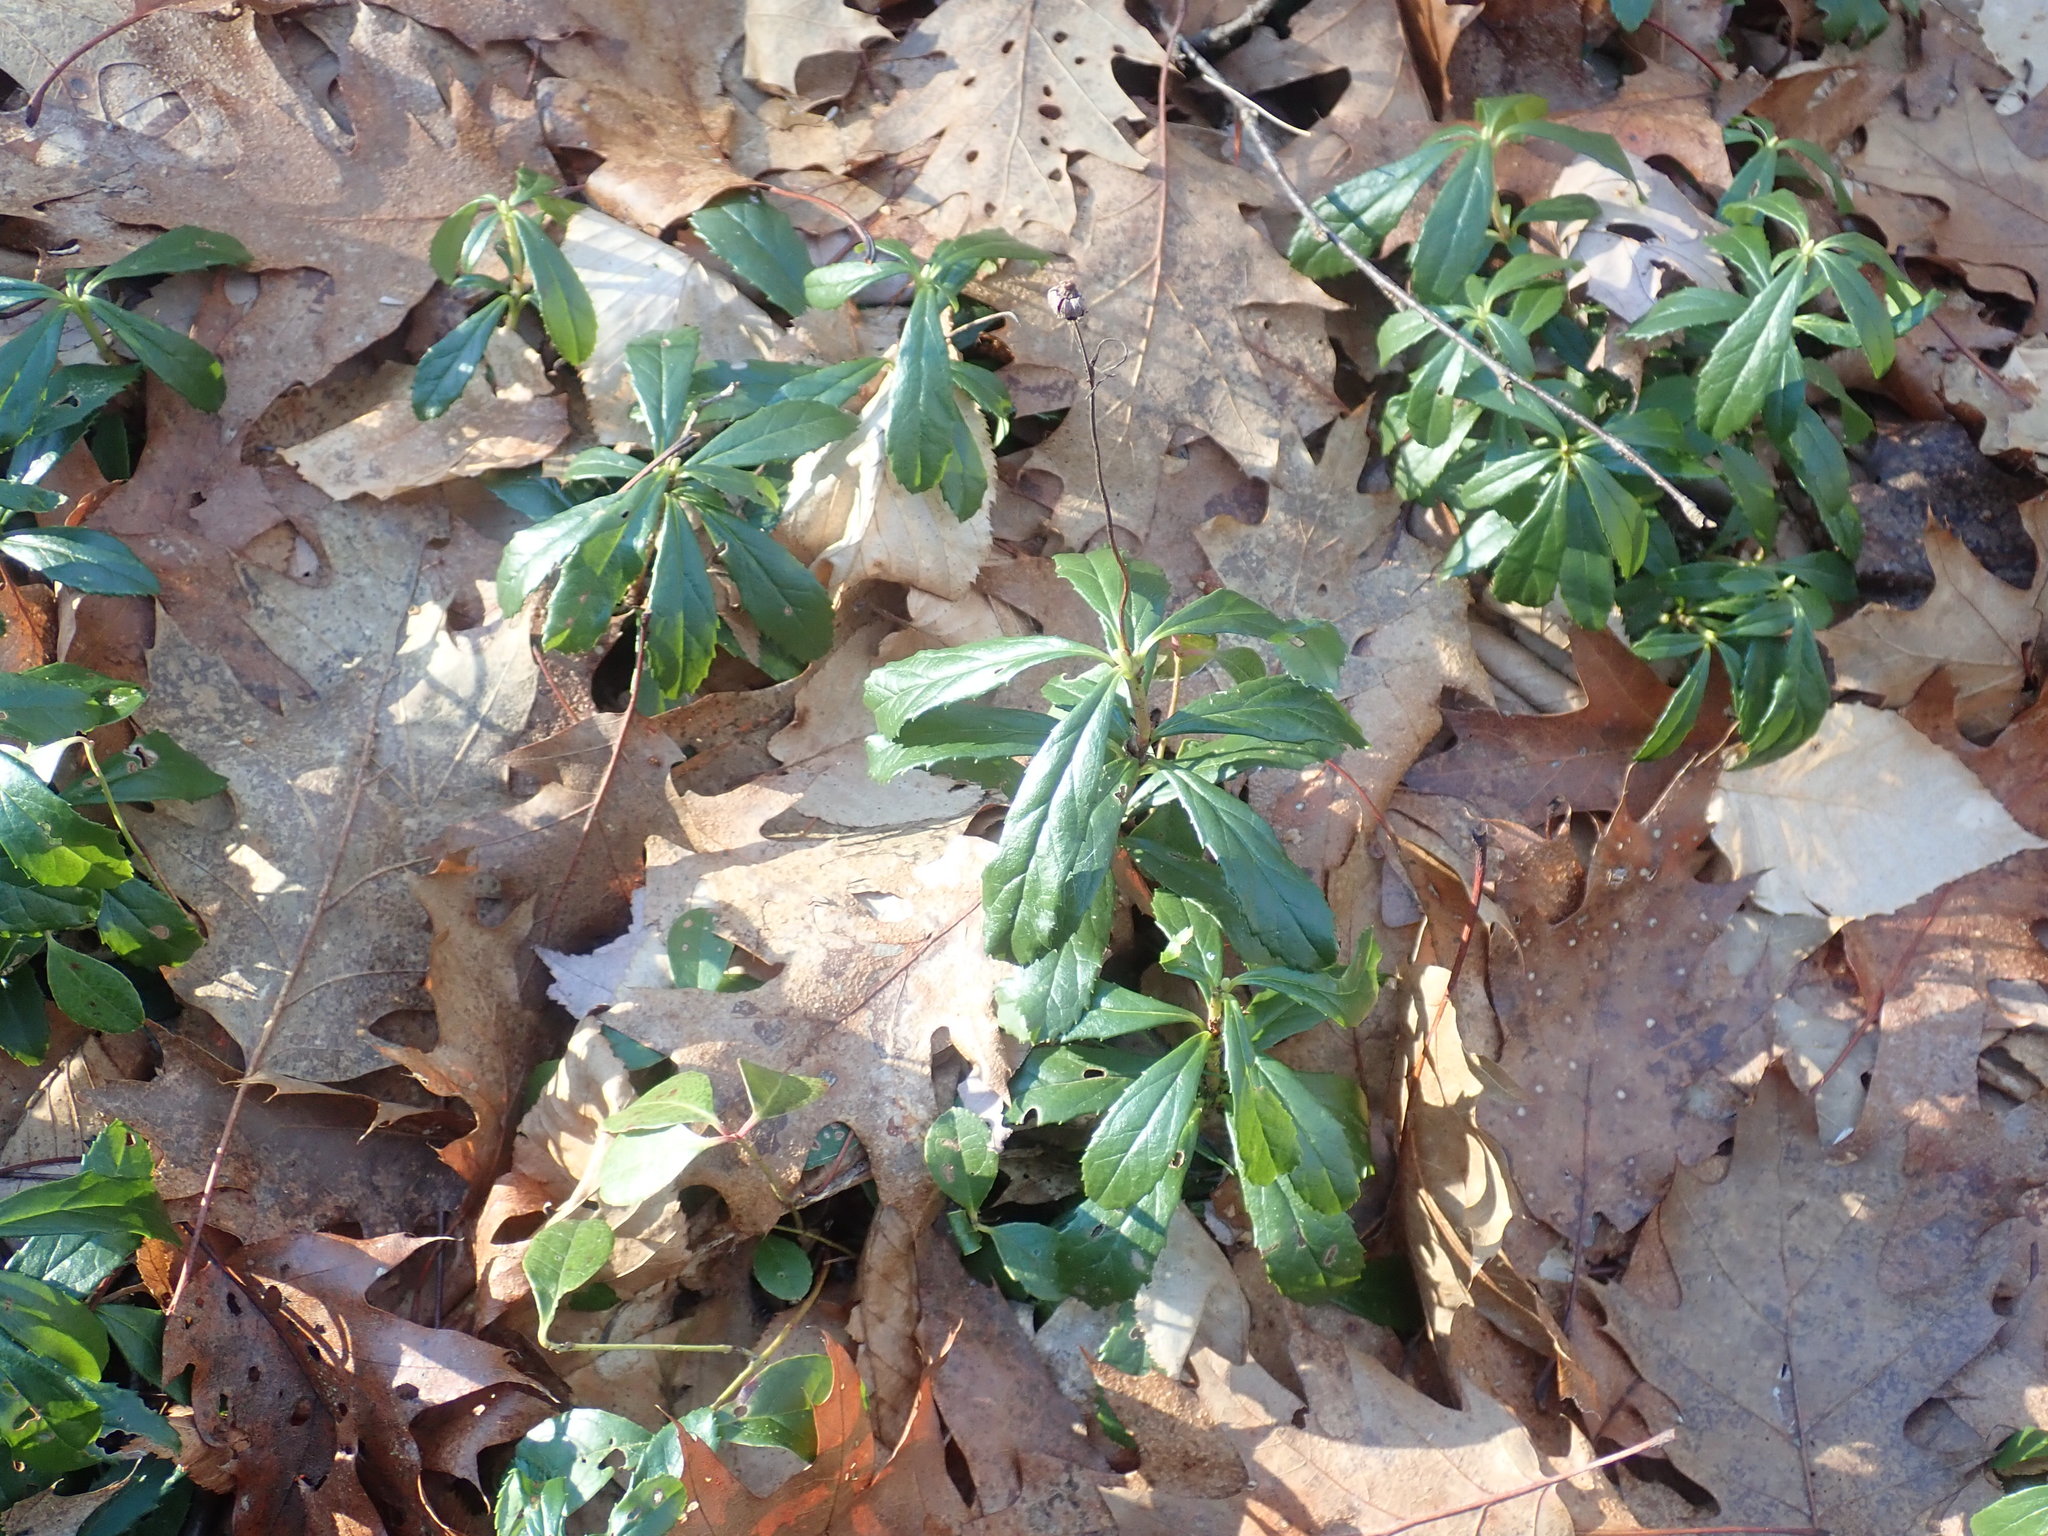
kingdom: Plantae
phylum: Tracheophyta
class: Magnoliopsida
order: Ericales
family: Ericaceae
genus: Chimaphila
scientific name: Chimaphila umbellata
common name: Pipsissewa
